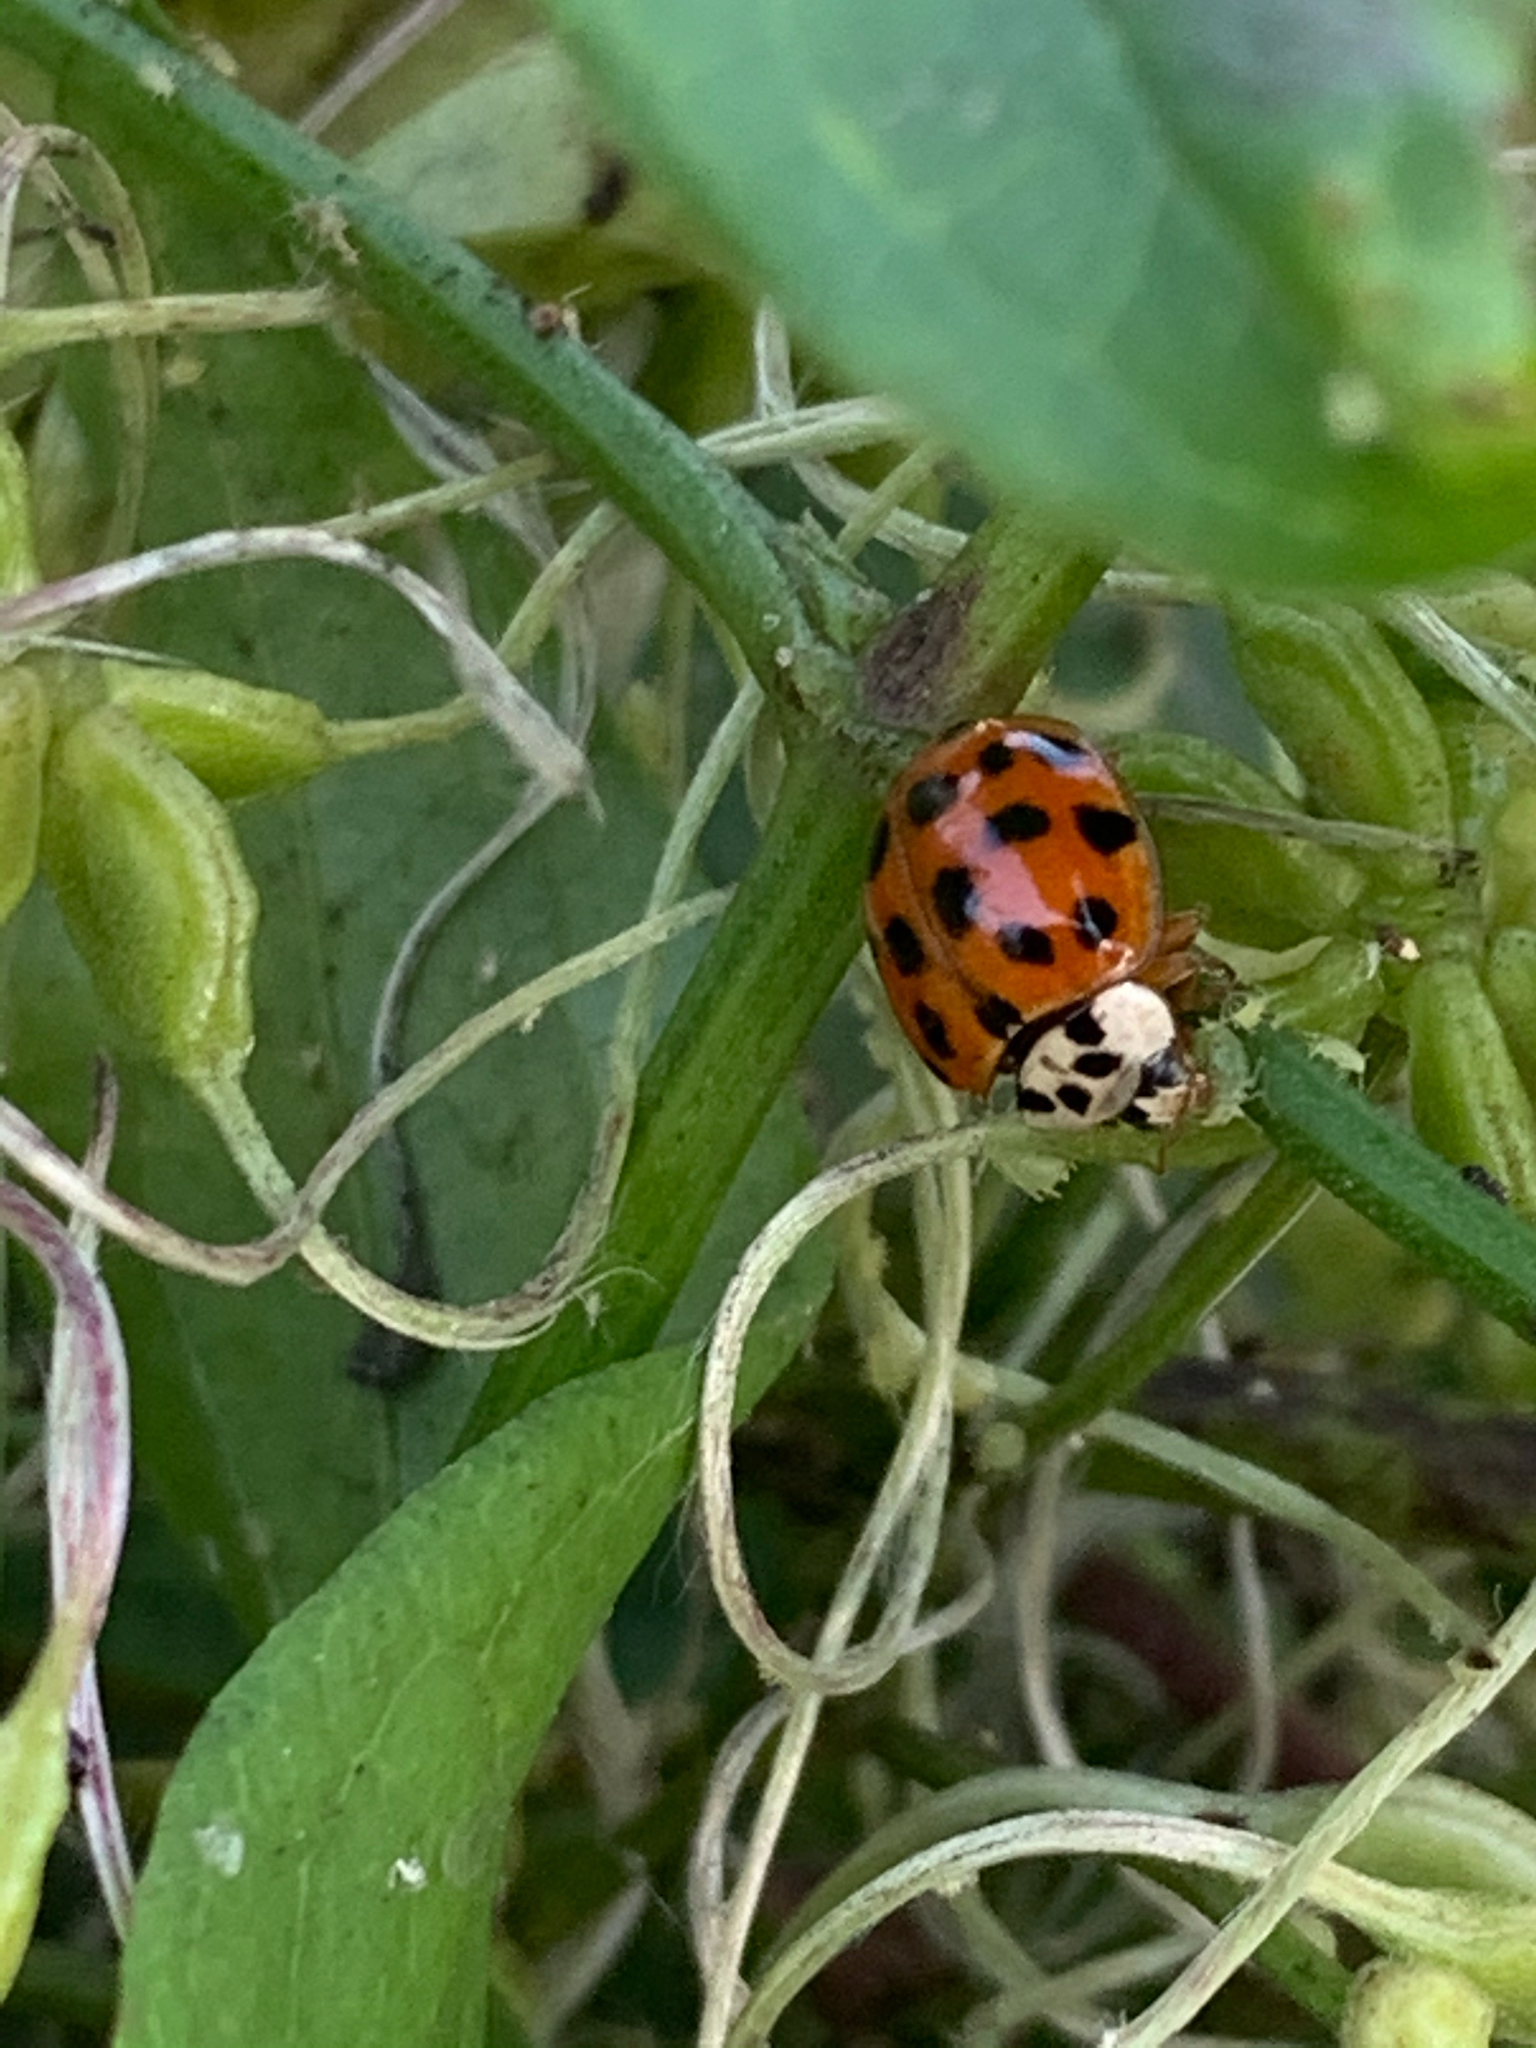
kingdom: Animalia
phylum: Arthropoda
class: Insecta
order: Coleoptera
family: Coccinellidae
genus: Harmonia
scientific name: Harmonia axyridis
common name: Harlequin ladybird
